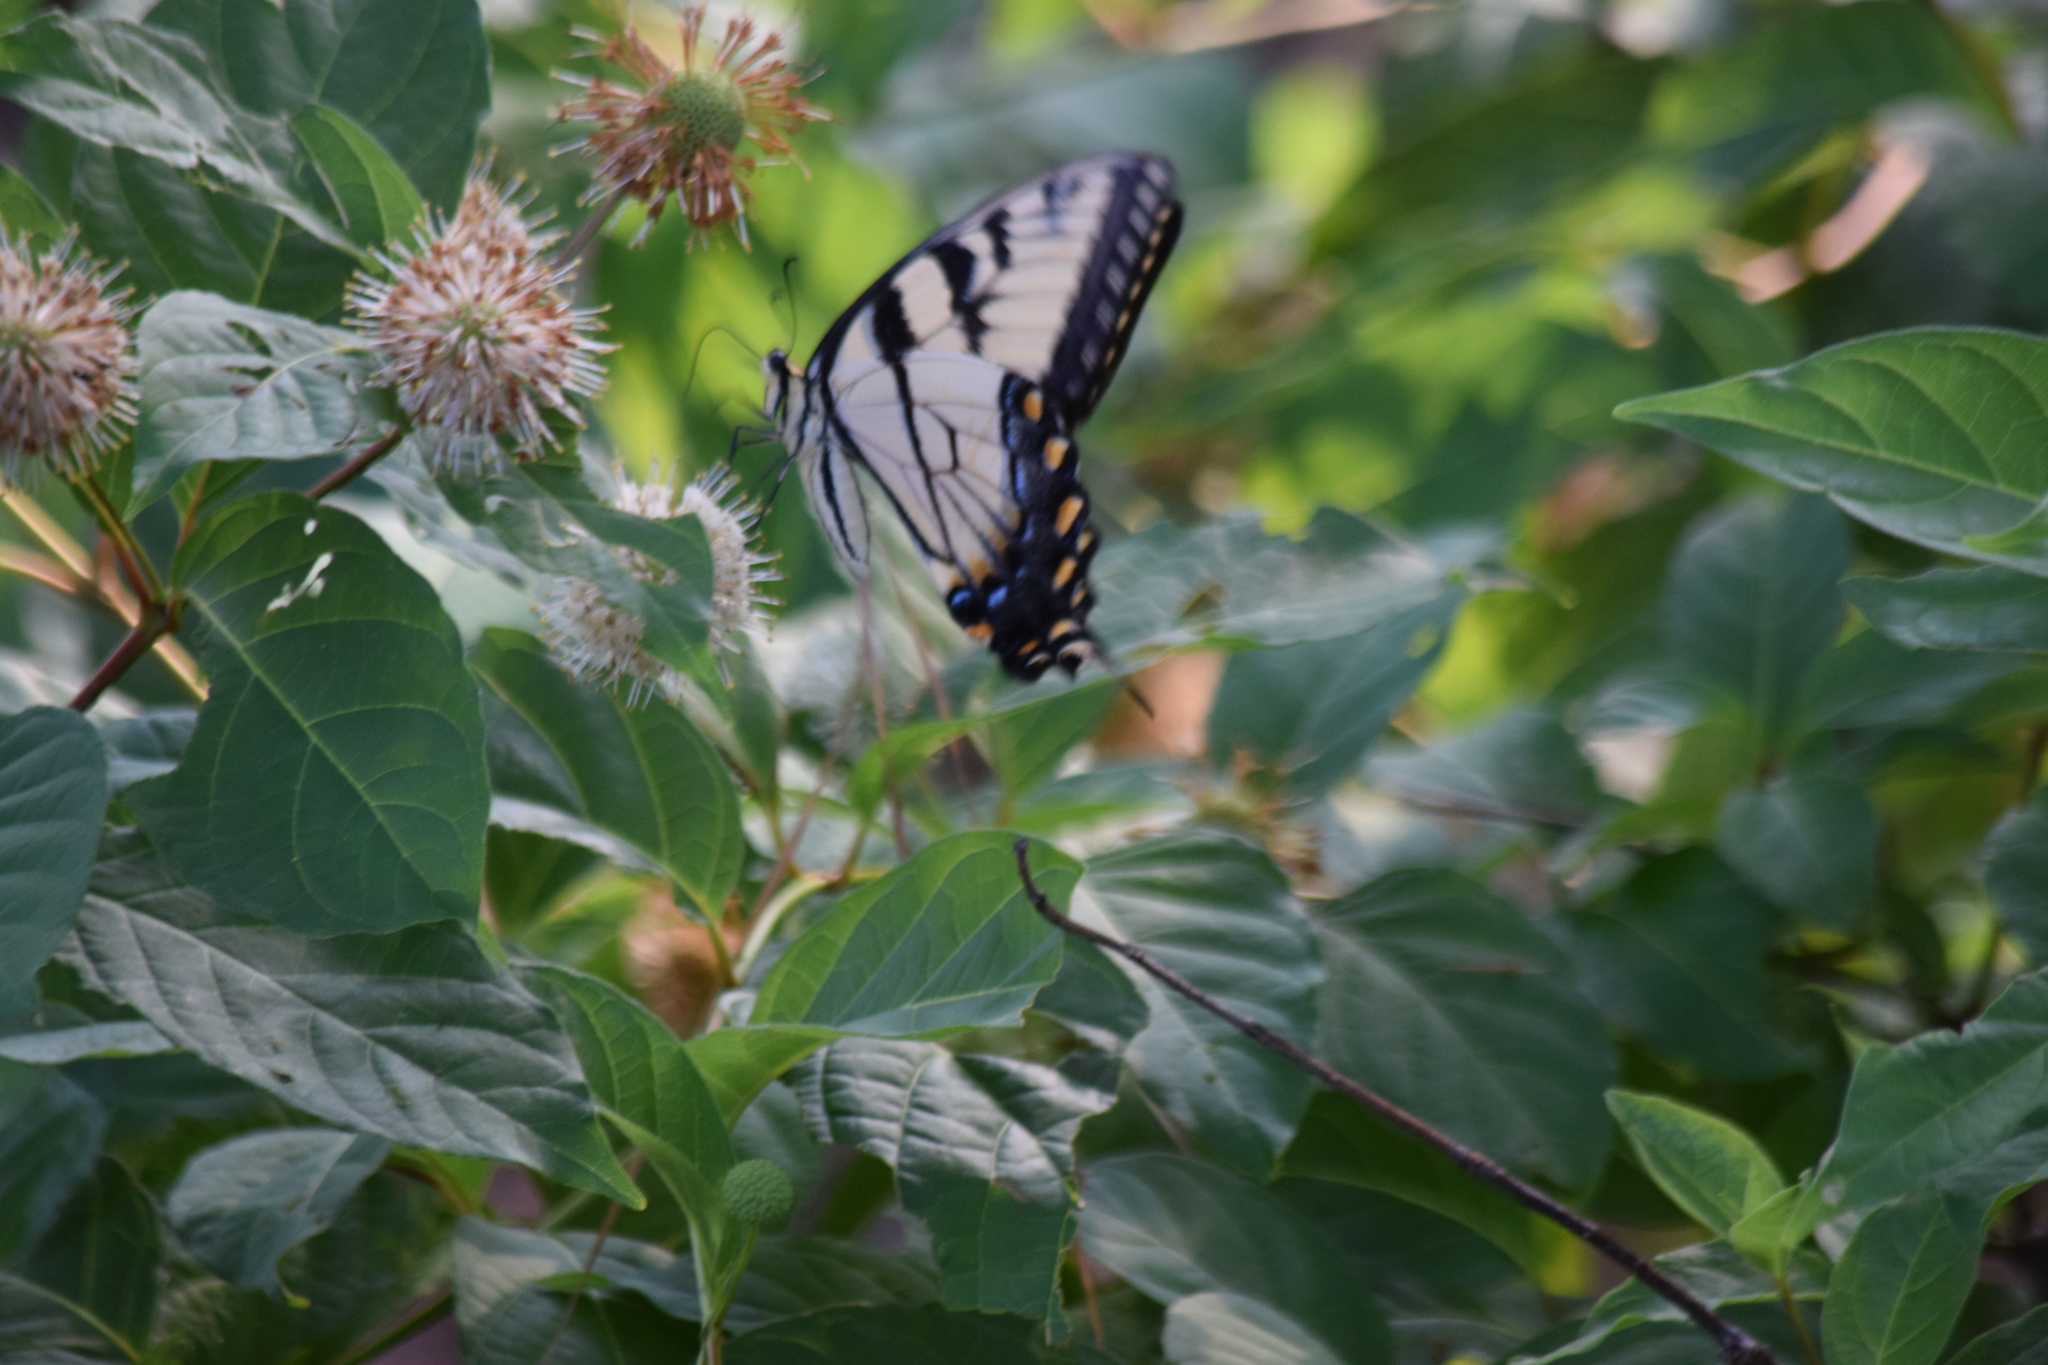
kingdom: Animalia
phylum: Arthropoda
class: Insecta
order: Lepidoptera
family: Papilionidae
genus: Papilio
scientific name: Papilio glaucus
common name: Tiger swallowtail
